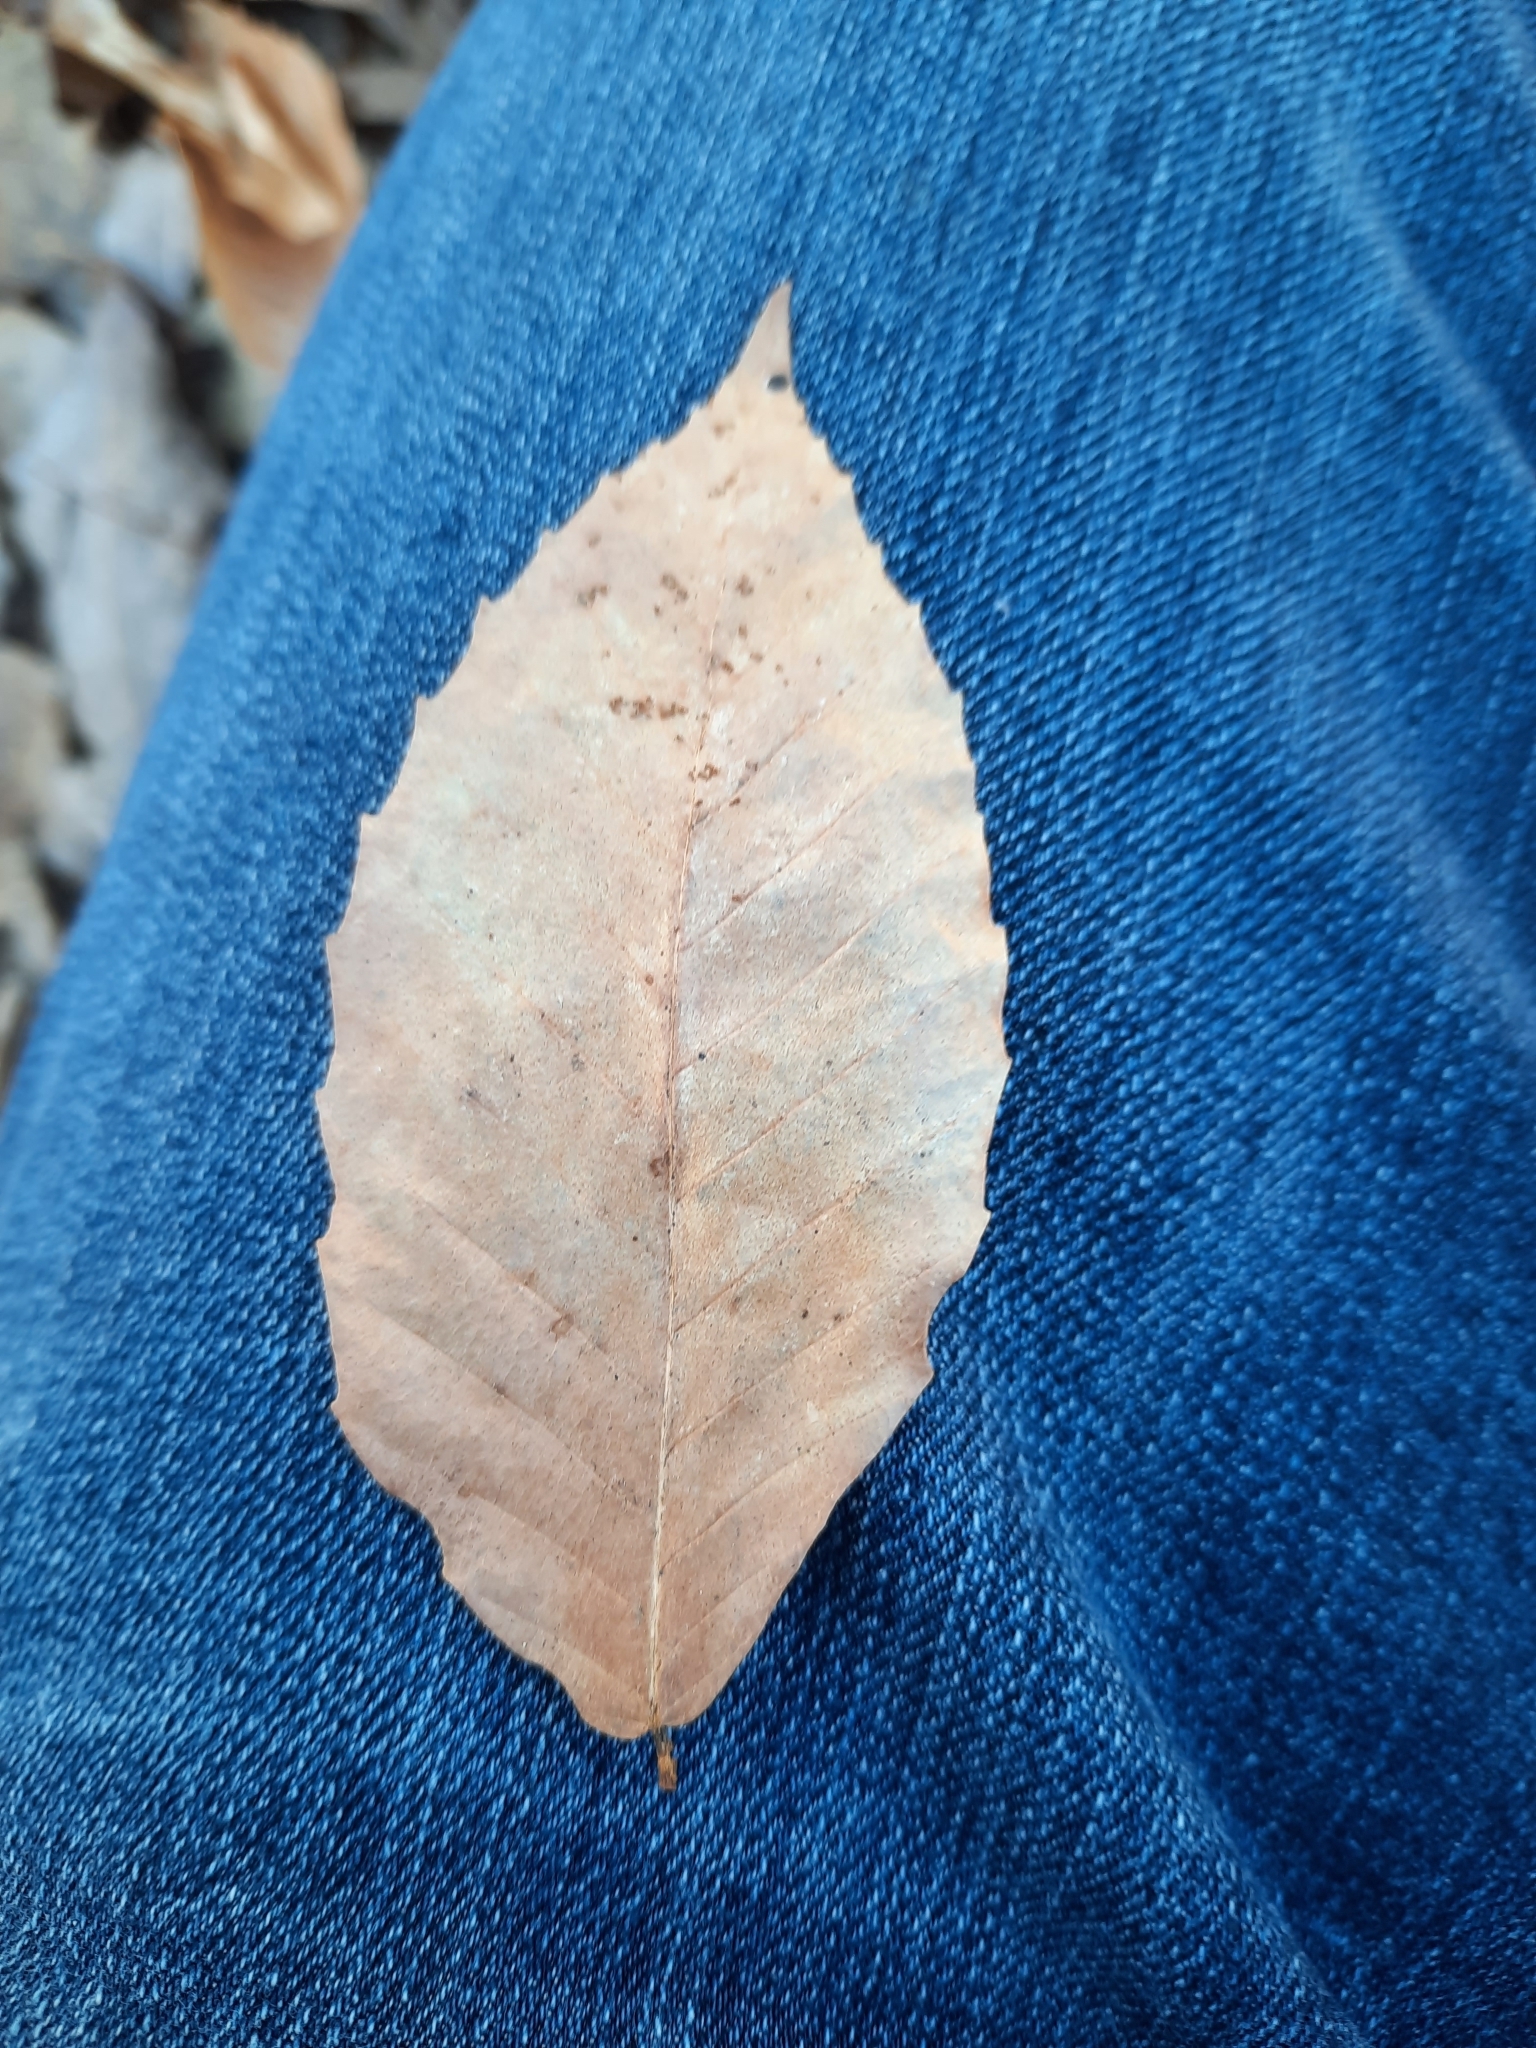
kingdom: Plantae
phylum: Tracheophyta
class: Magnoliopsida
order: Fagales
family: Fagaceae
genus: Fagus
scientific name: Fagus grandifolia
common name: American beech
